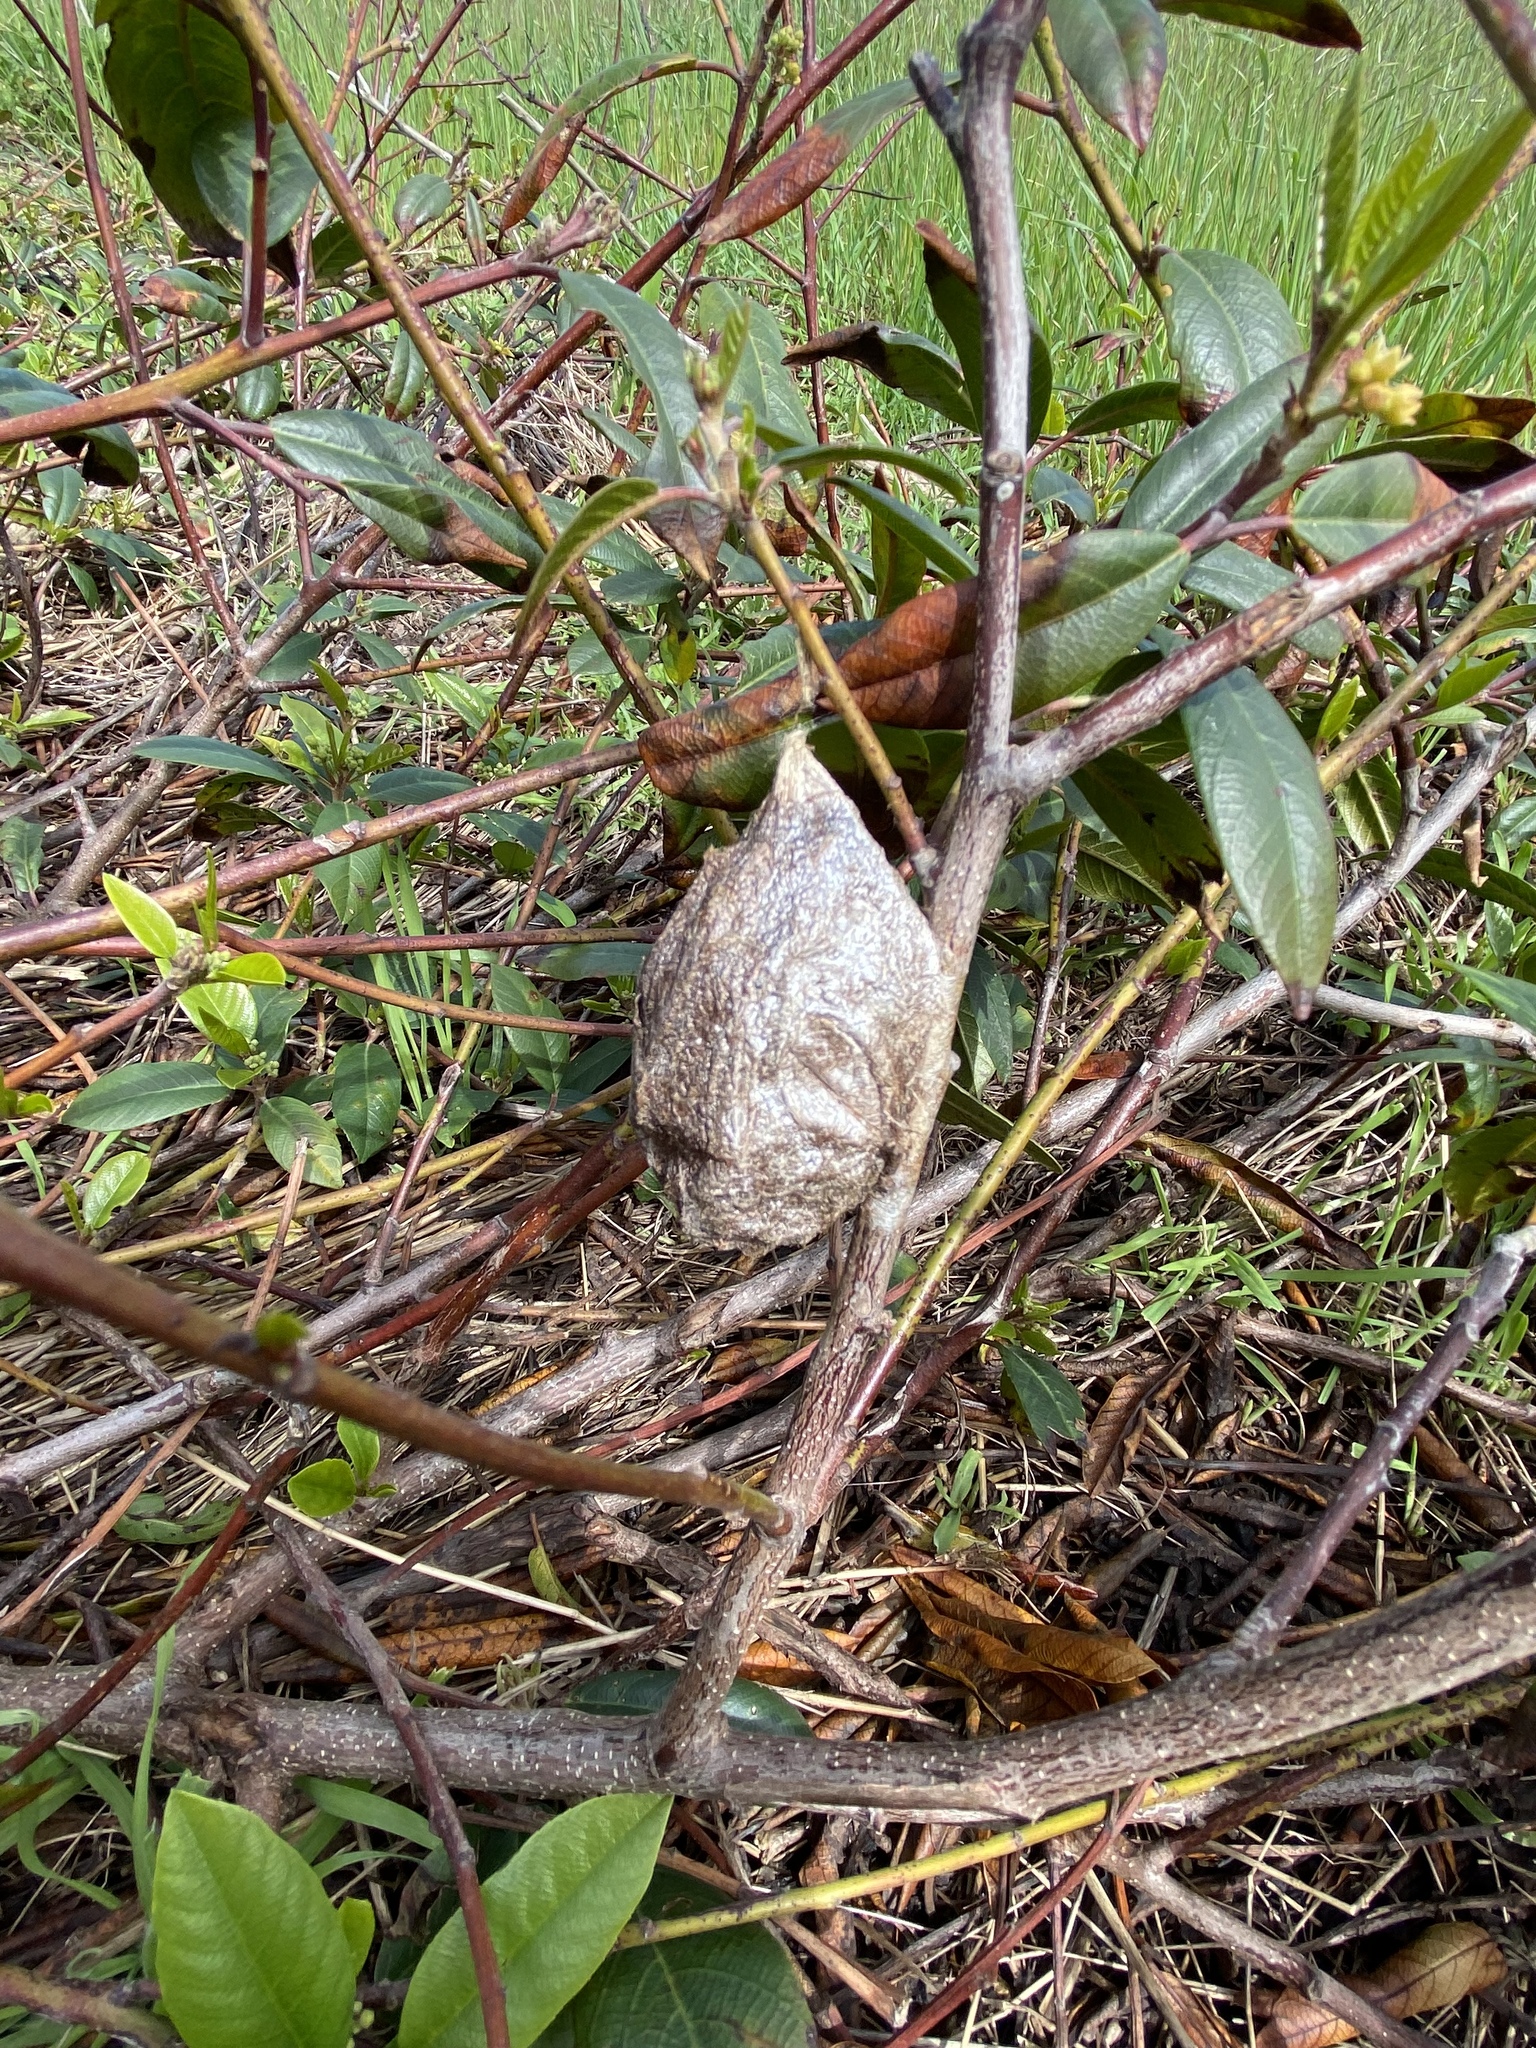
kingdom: Animalia
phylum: Arthropoda
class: Insecta
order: Lepidoptera
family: Saturniidae
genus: Hyalophora
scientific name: Hyalophora euryalus
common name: Ceanothus silkmoth
